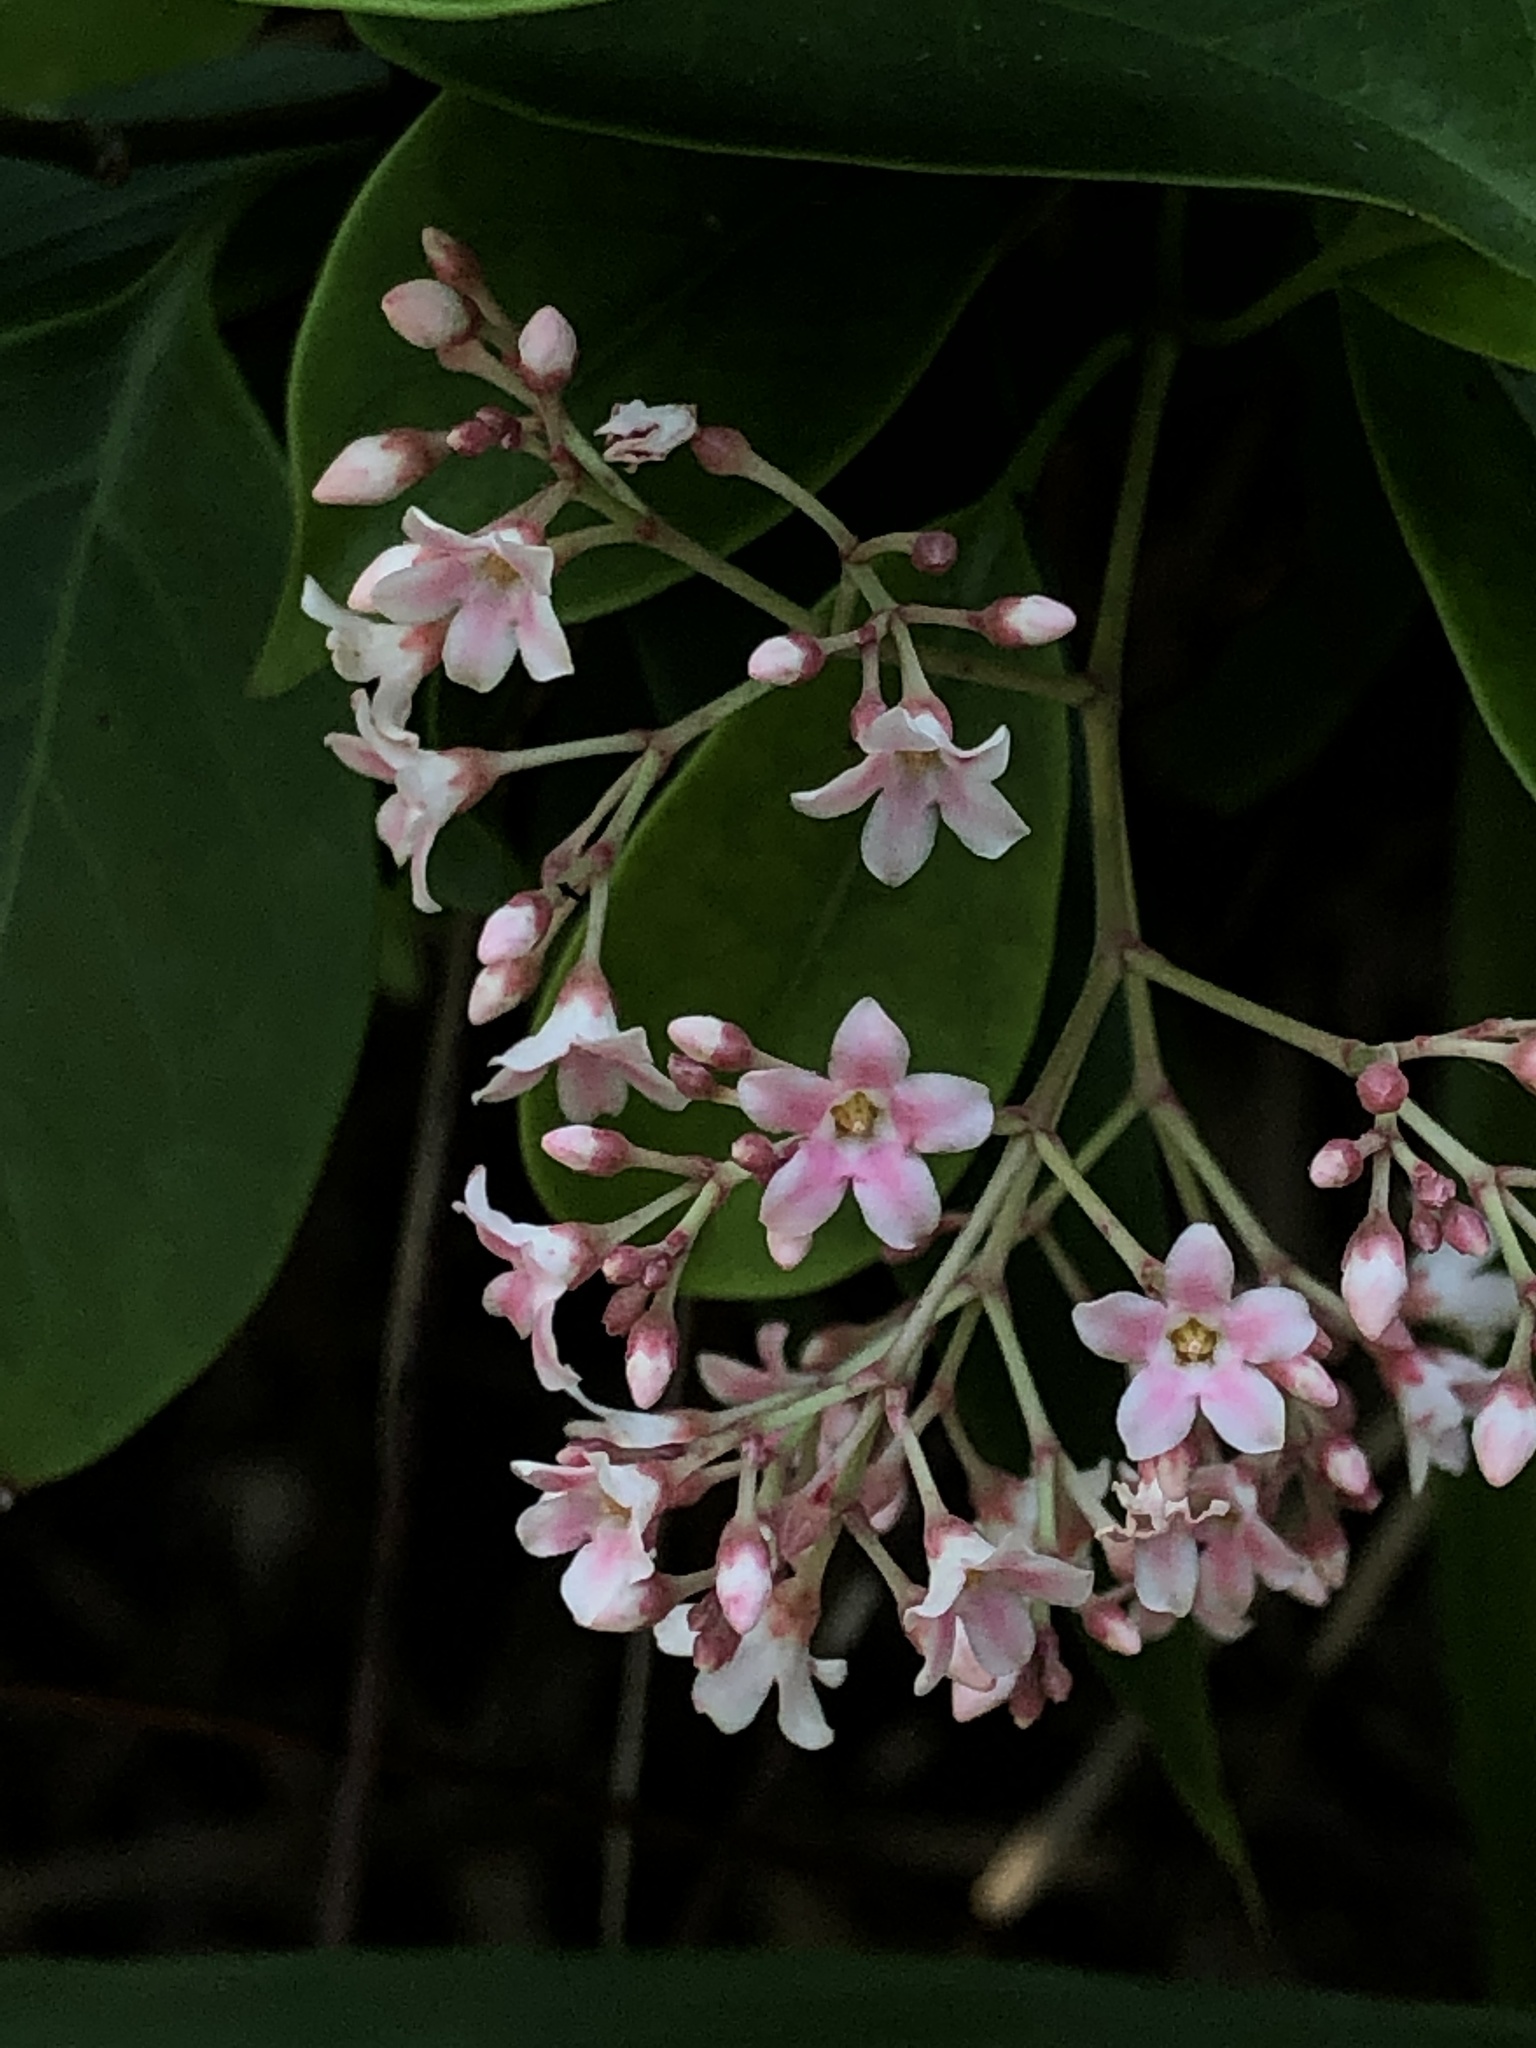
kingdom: Plantae
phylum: Tracheophyta
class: Magnoliopsida
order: Gentianales
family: Apocynaceae
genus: Urceola
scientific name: Urceola rosea
